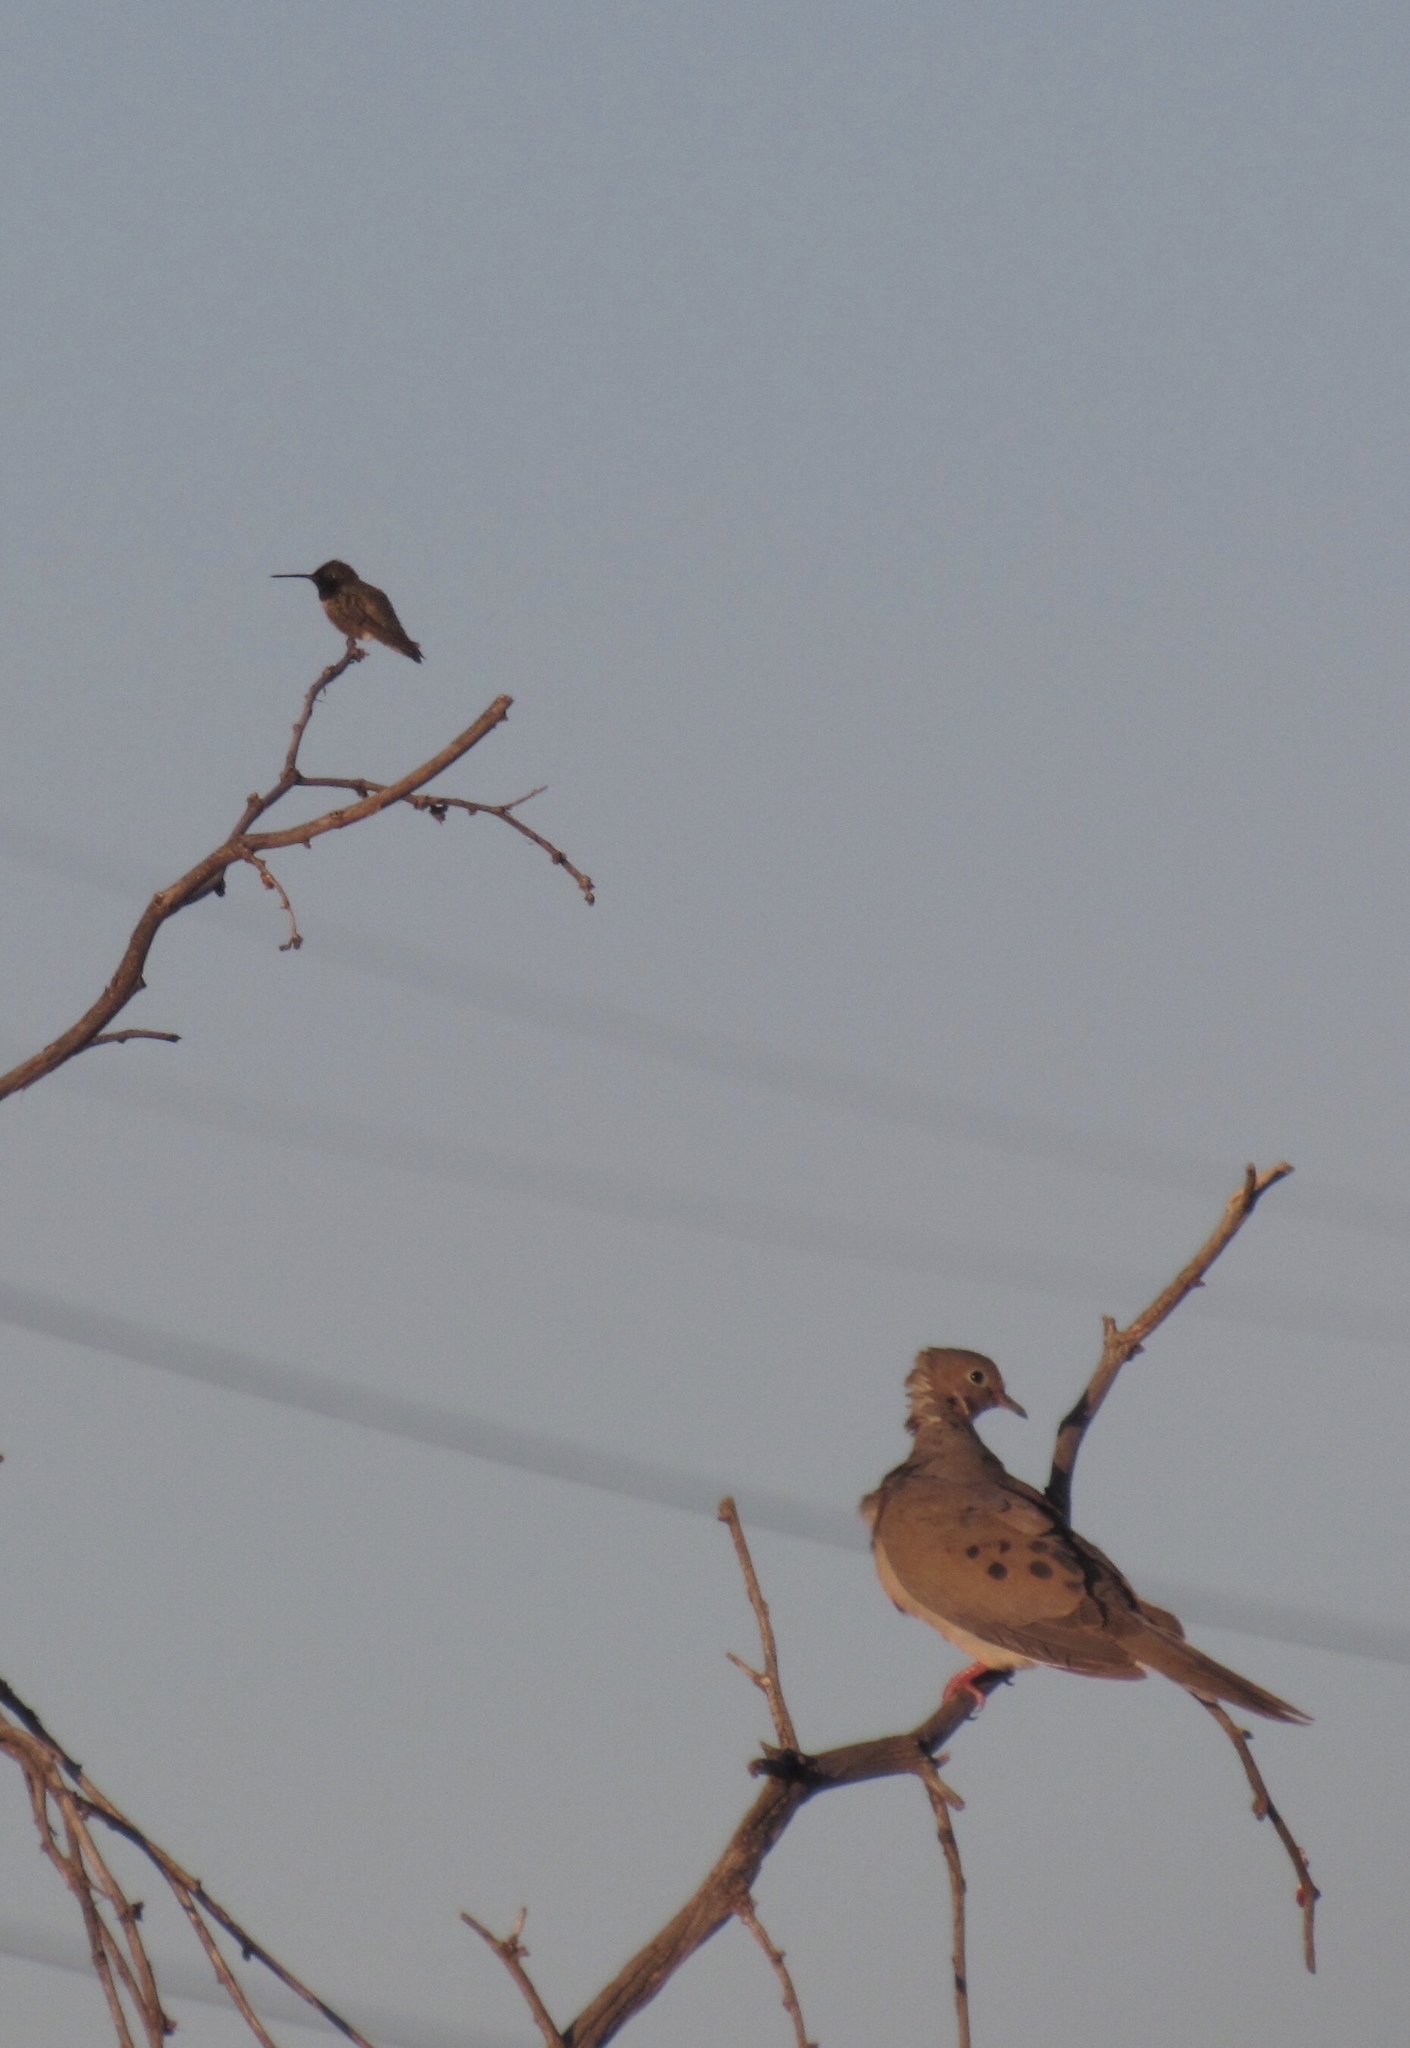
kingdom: Animalia
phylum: Chordata
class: Aves
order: Columbiformes
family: Columbidae
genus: Zenaida
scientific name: Zenaida macroura
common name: Mourning dove
